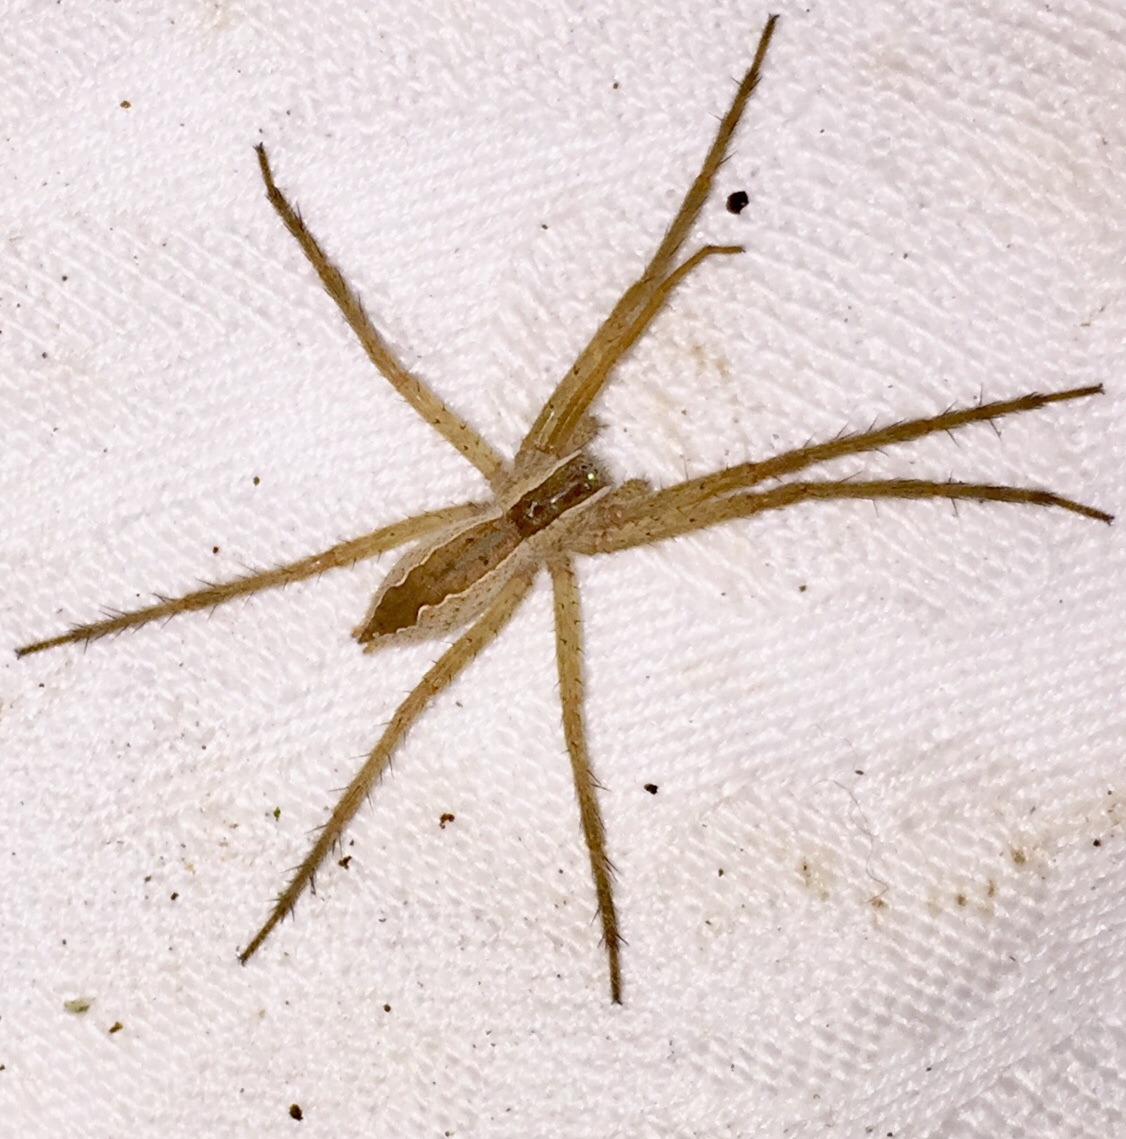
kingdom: Animalia
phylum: Arthropoda
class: Arachnida
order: Araneae
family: Pisauridae
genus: Pisaurina
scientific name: Pisaurina mira
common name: American nursery web spider
